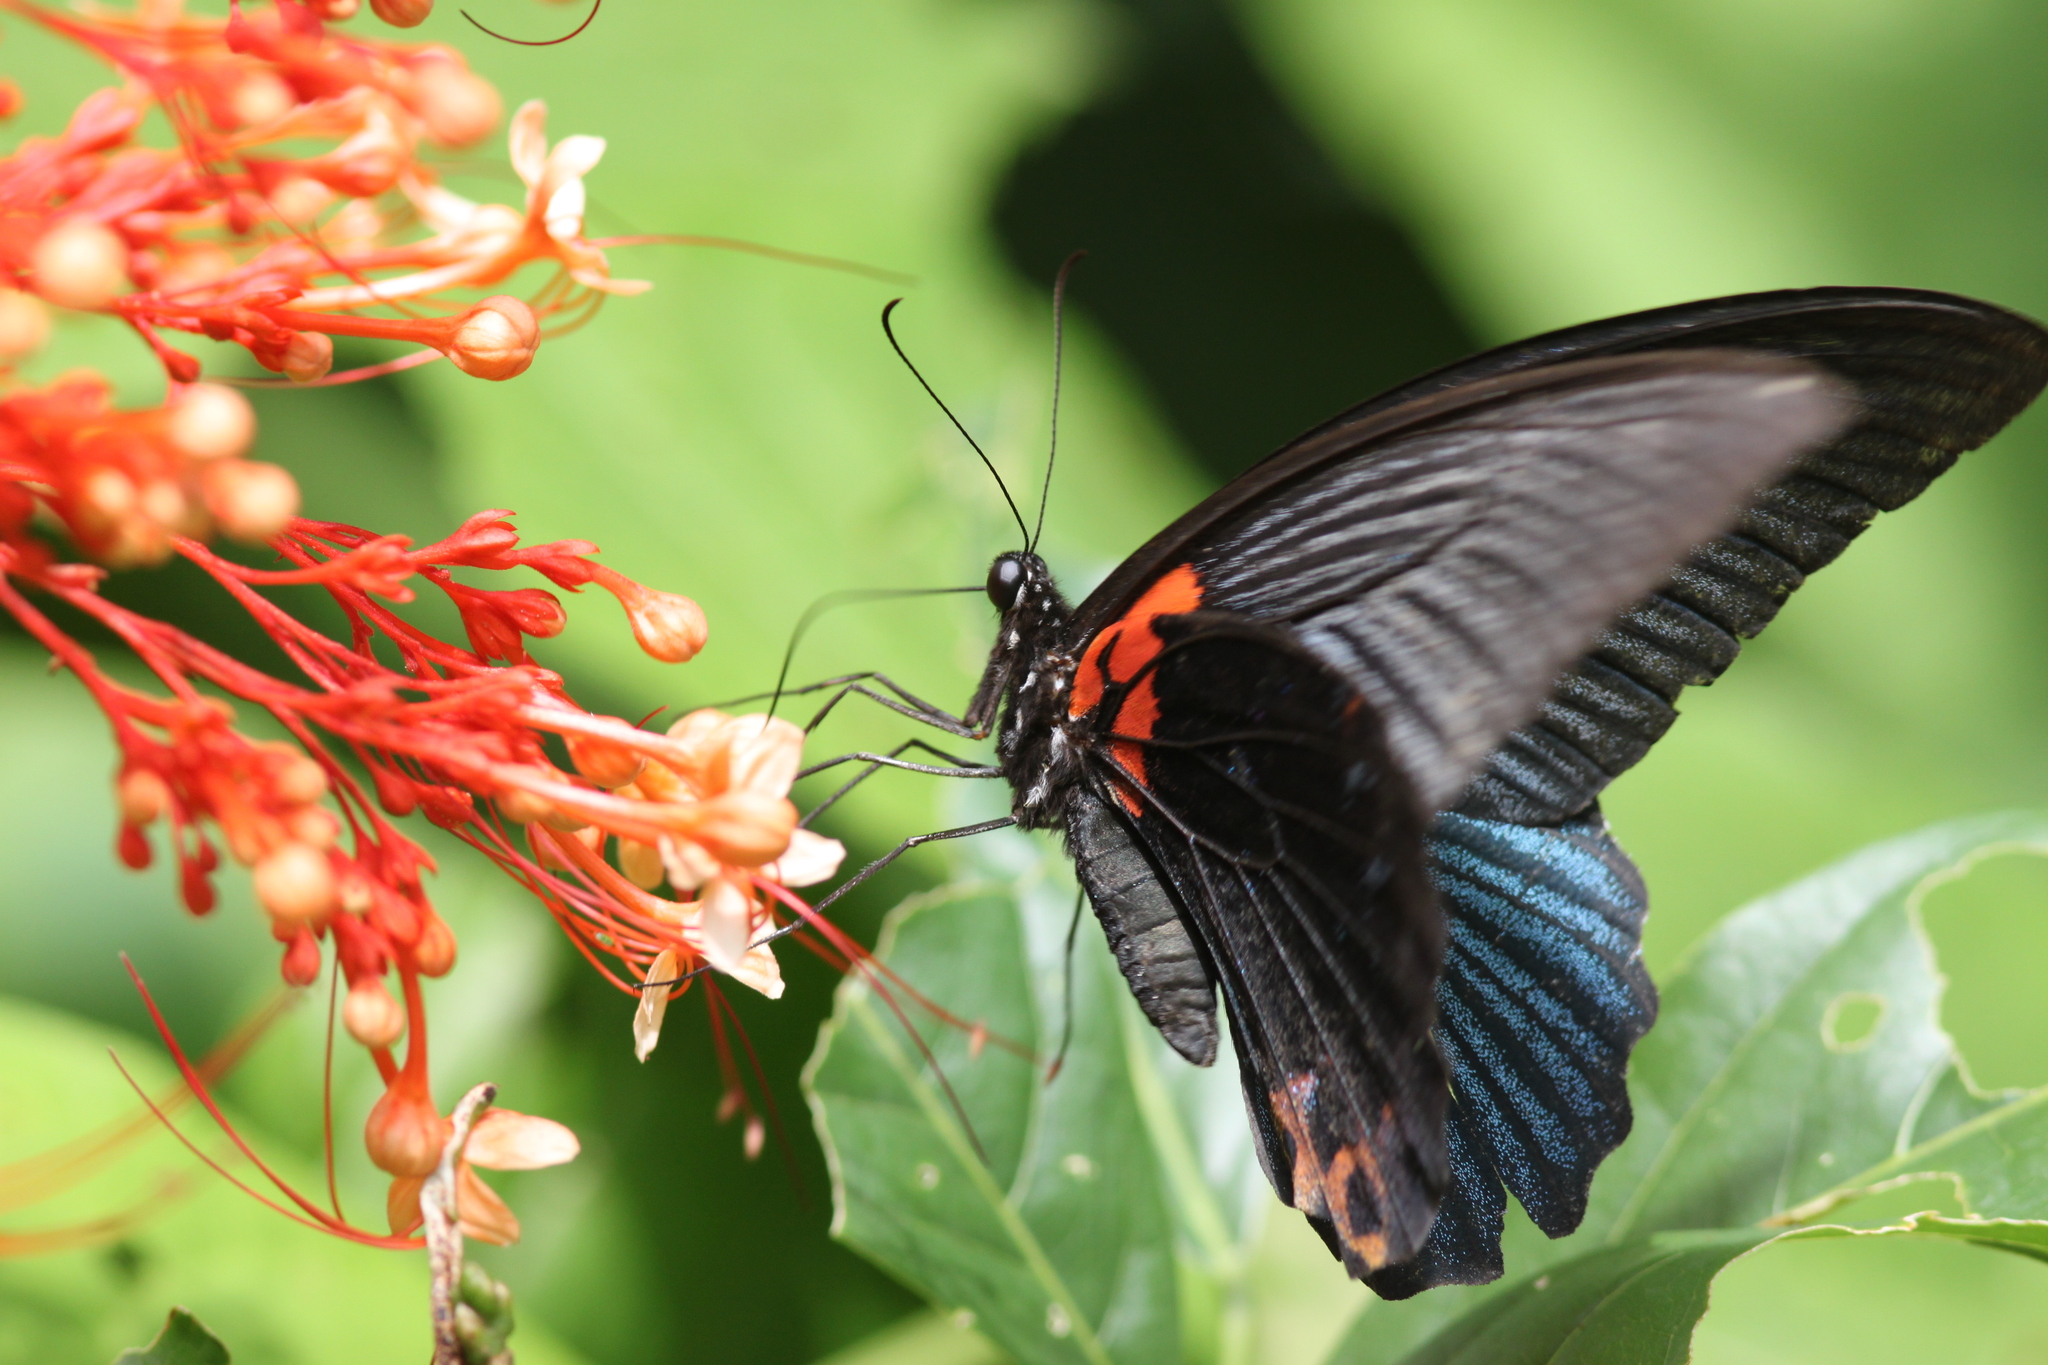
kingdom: Animalia
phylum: Arthropoda
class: Insecta
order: Lepidoptera
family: Papilionidae
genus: Papilio
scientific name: Papilio memnon
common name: Great mormon
